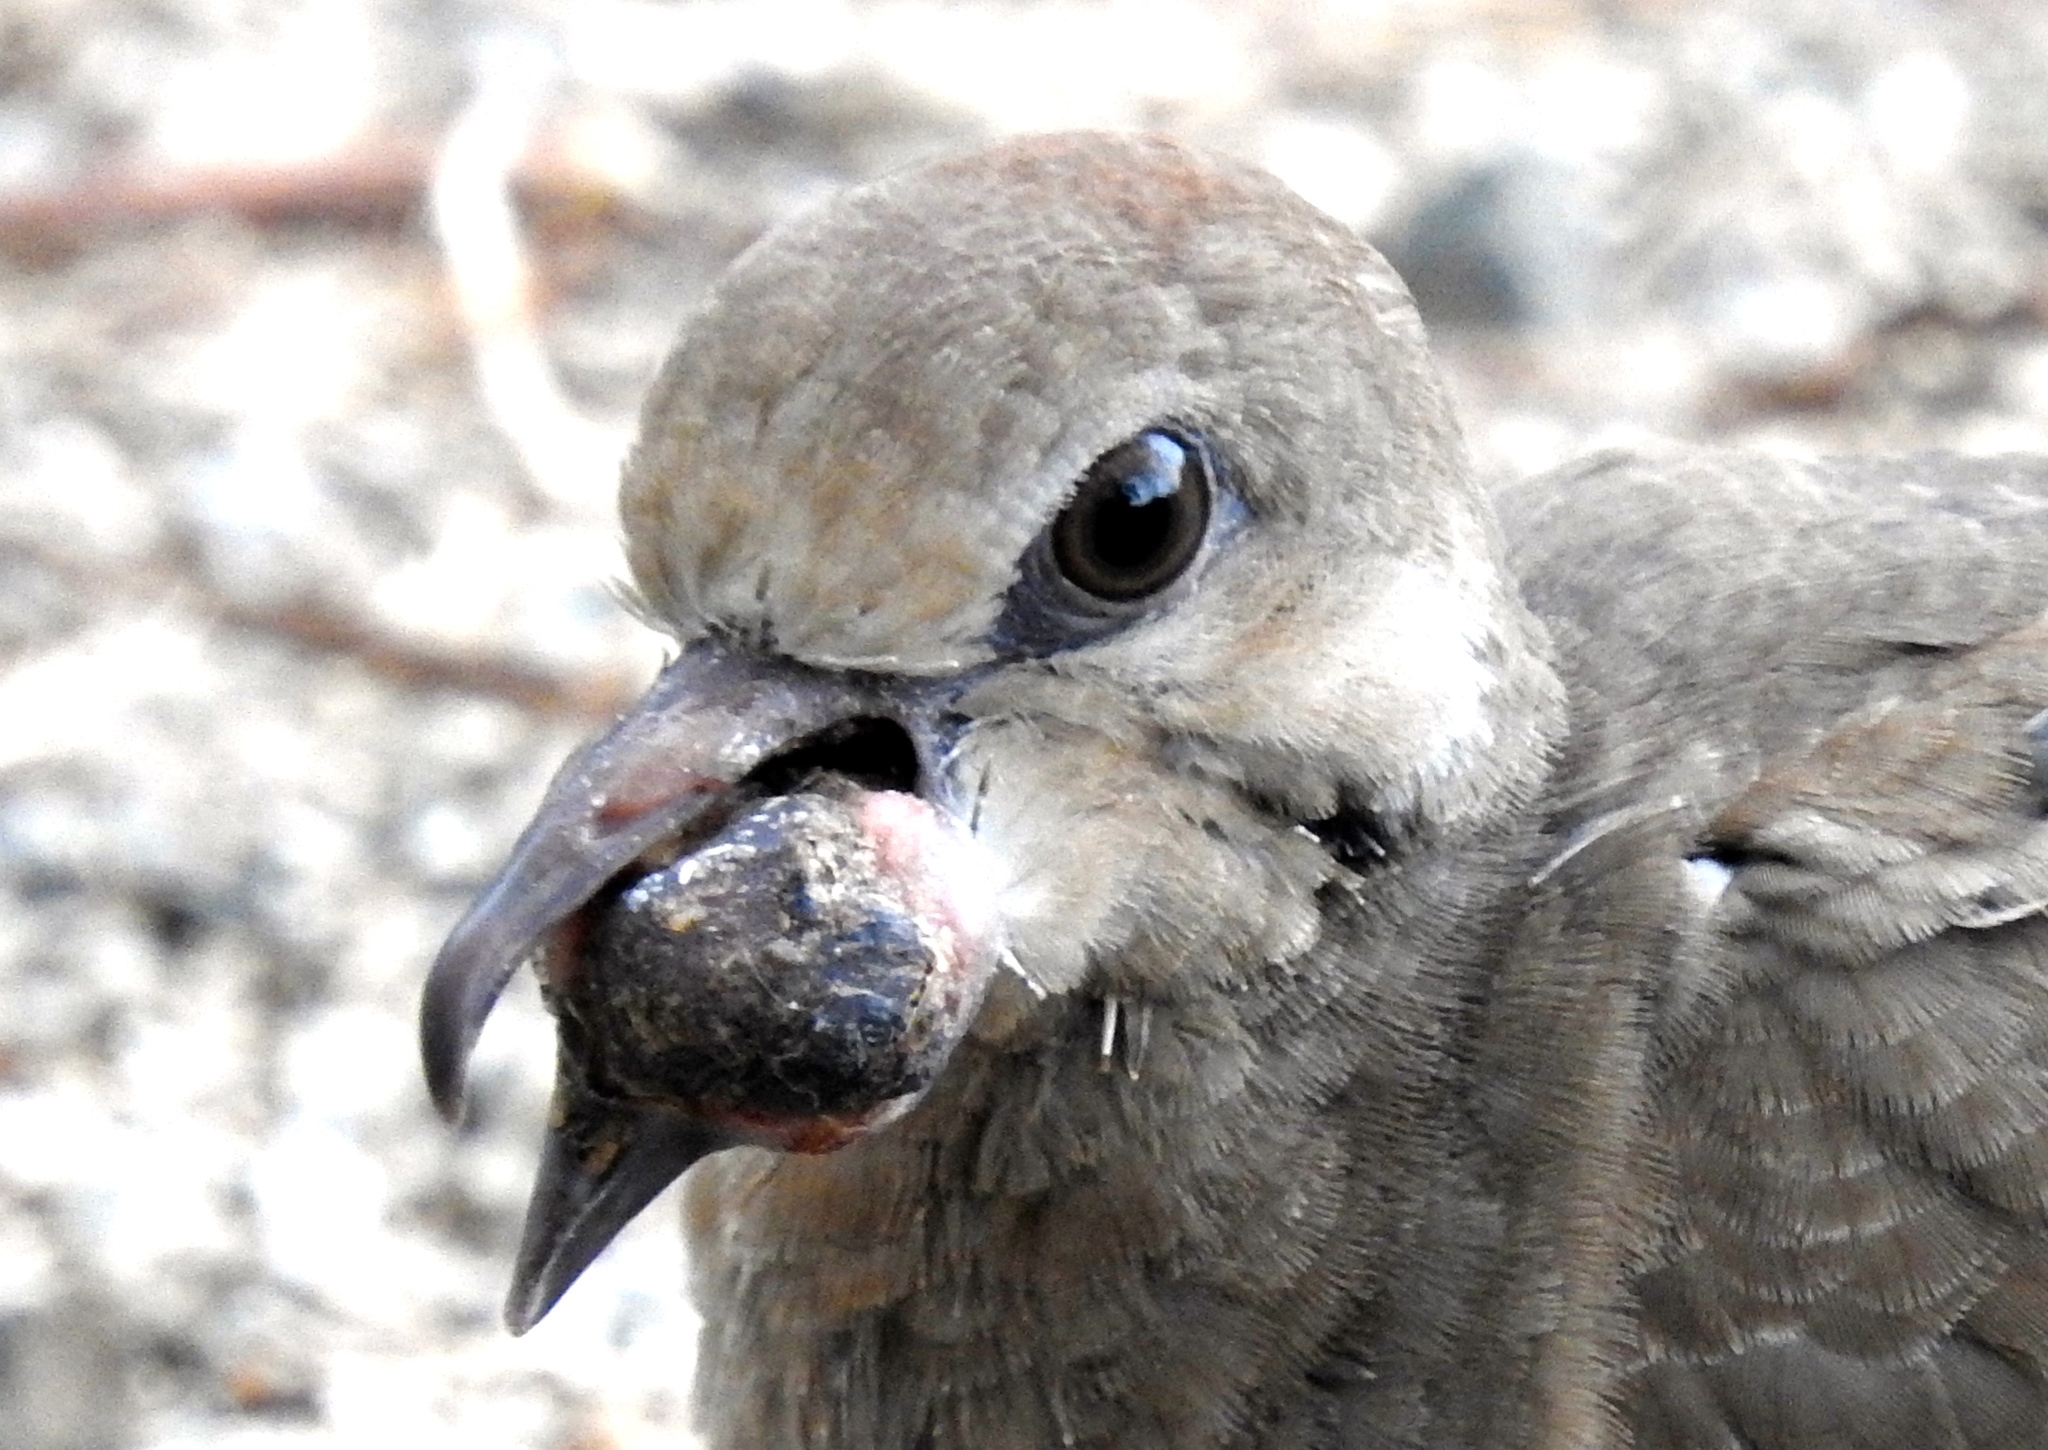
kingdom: Animalia
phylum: Chordata
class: Aves
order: Columbiformes
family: Columbidae
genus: Zenaida
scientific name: Zenaida asiatica
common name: White-winged dove
